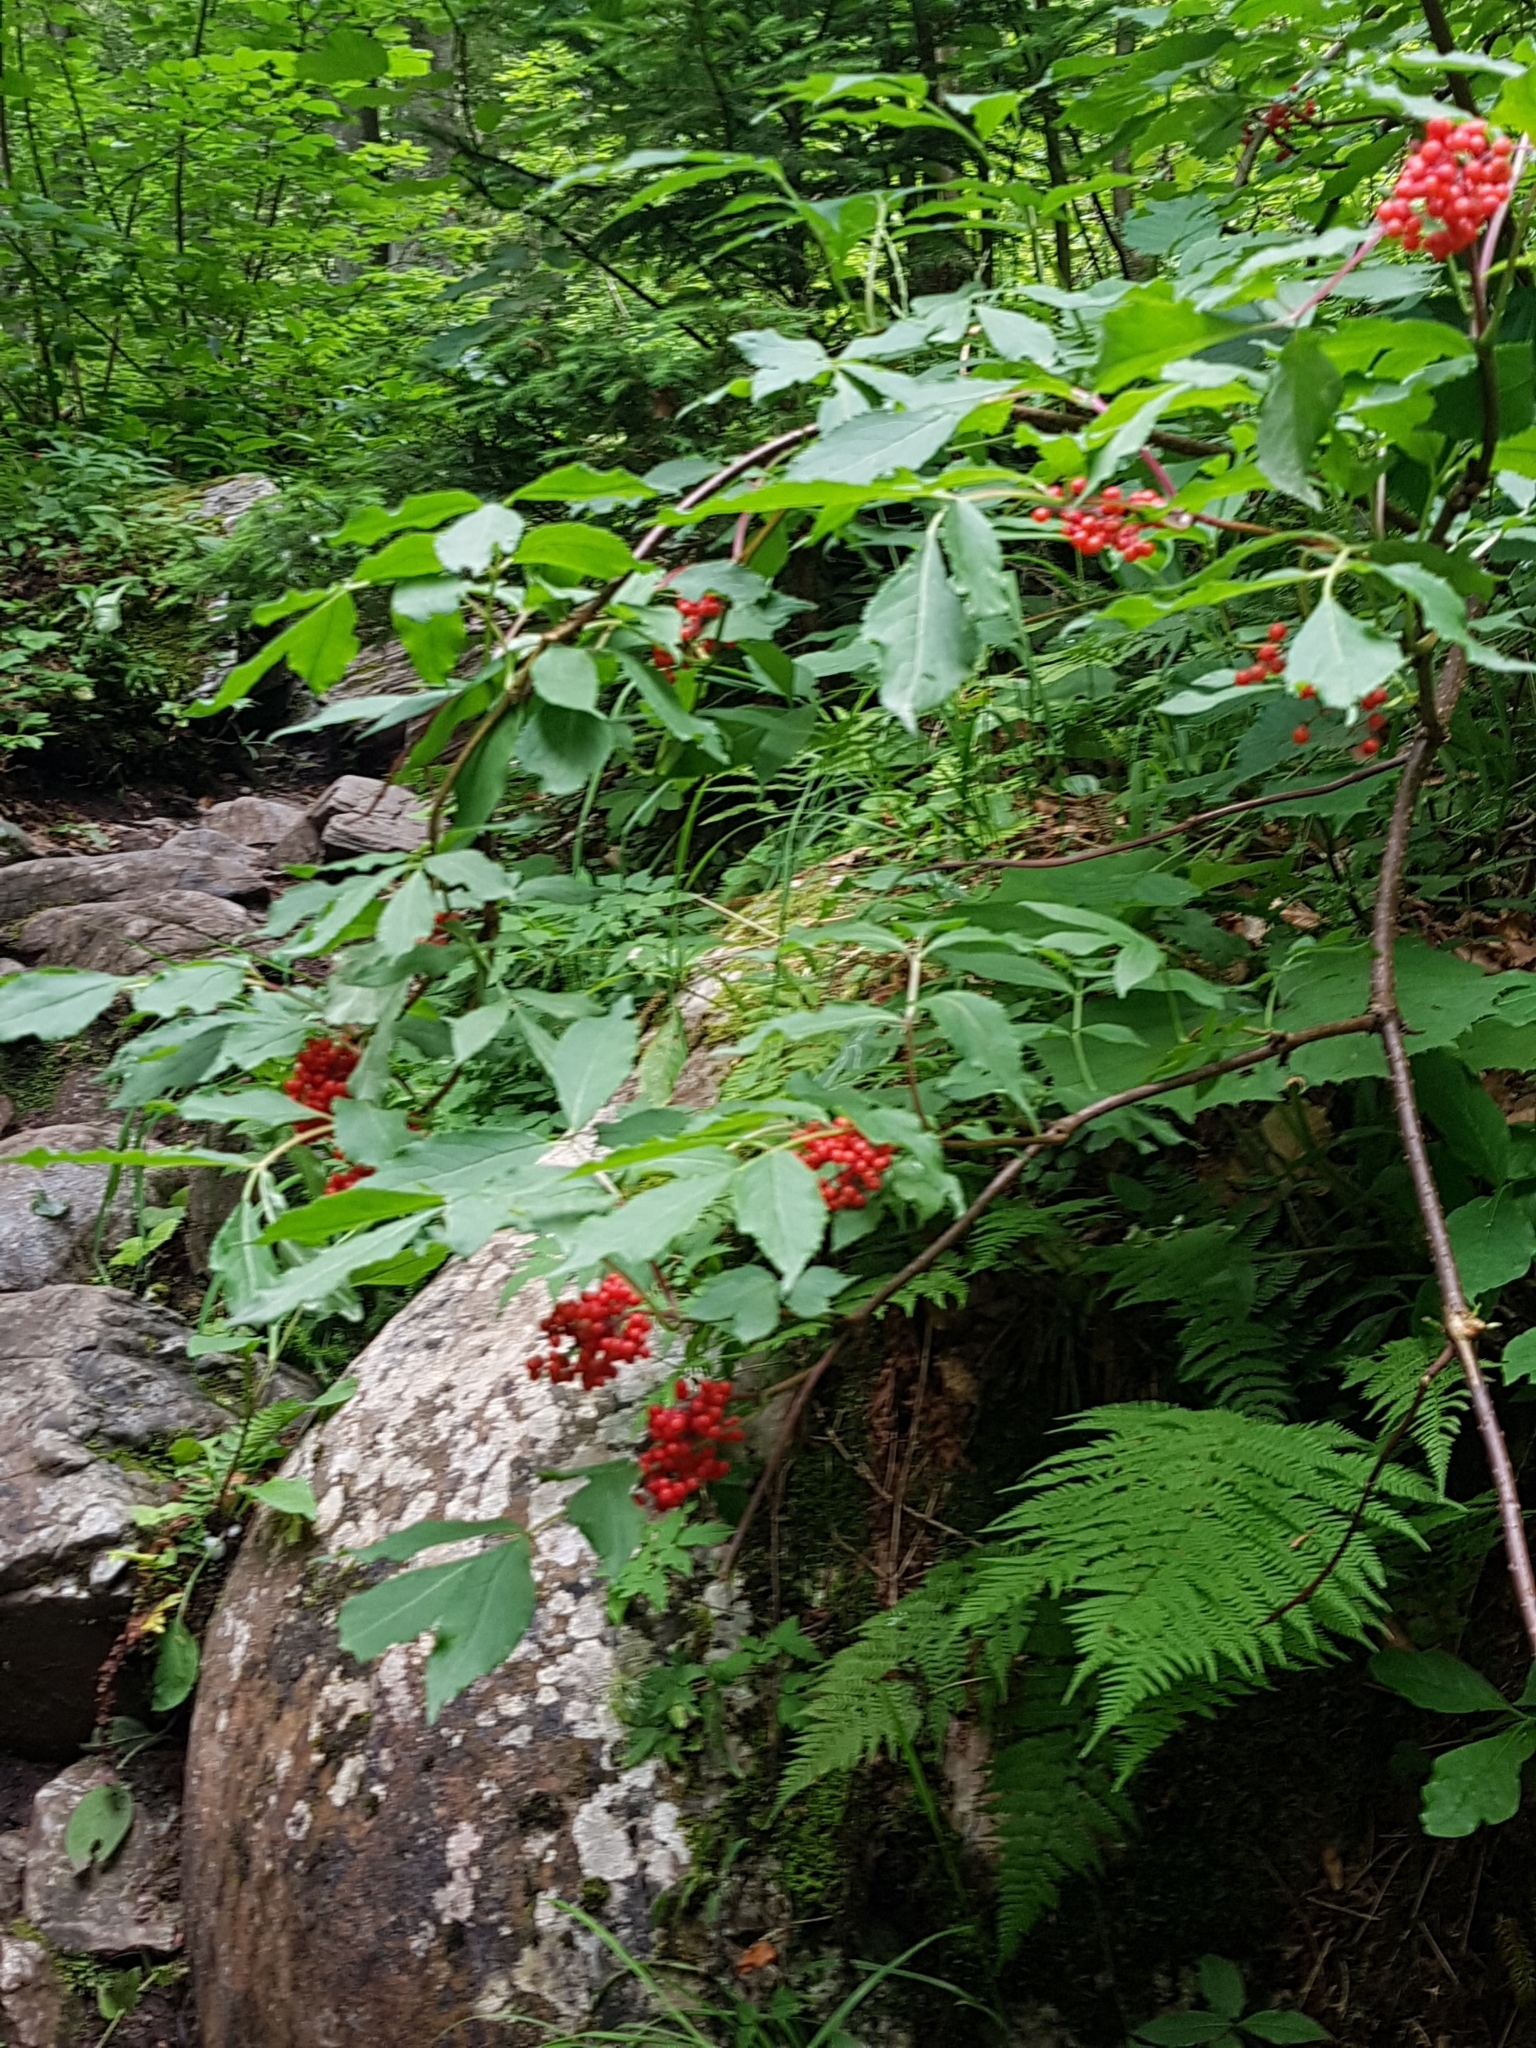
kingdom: Plantae
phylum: Tracheophyta
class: Magnoliopsida
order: Dipsacales
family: Viburnaceae
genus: Sambucus
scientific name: Sambucus racemosa
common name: Red-berried elder
